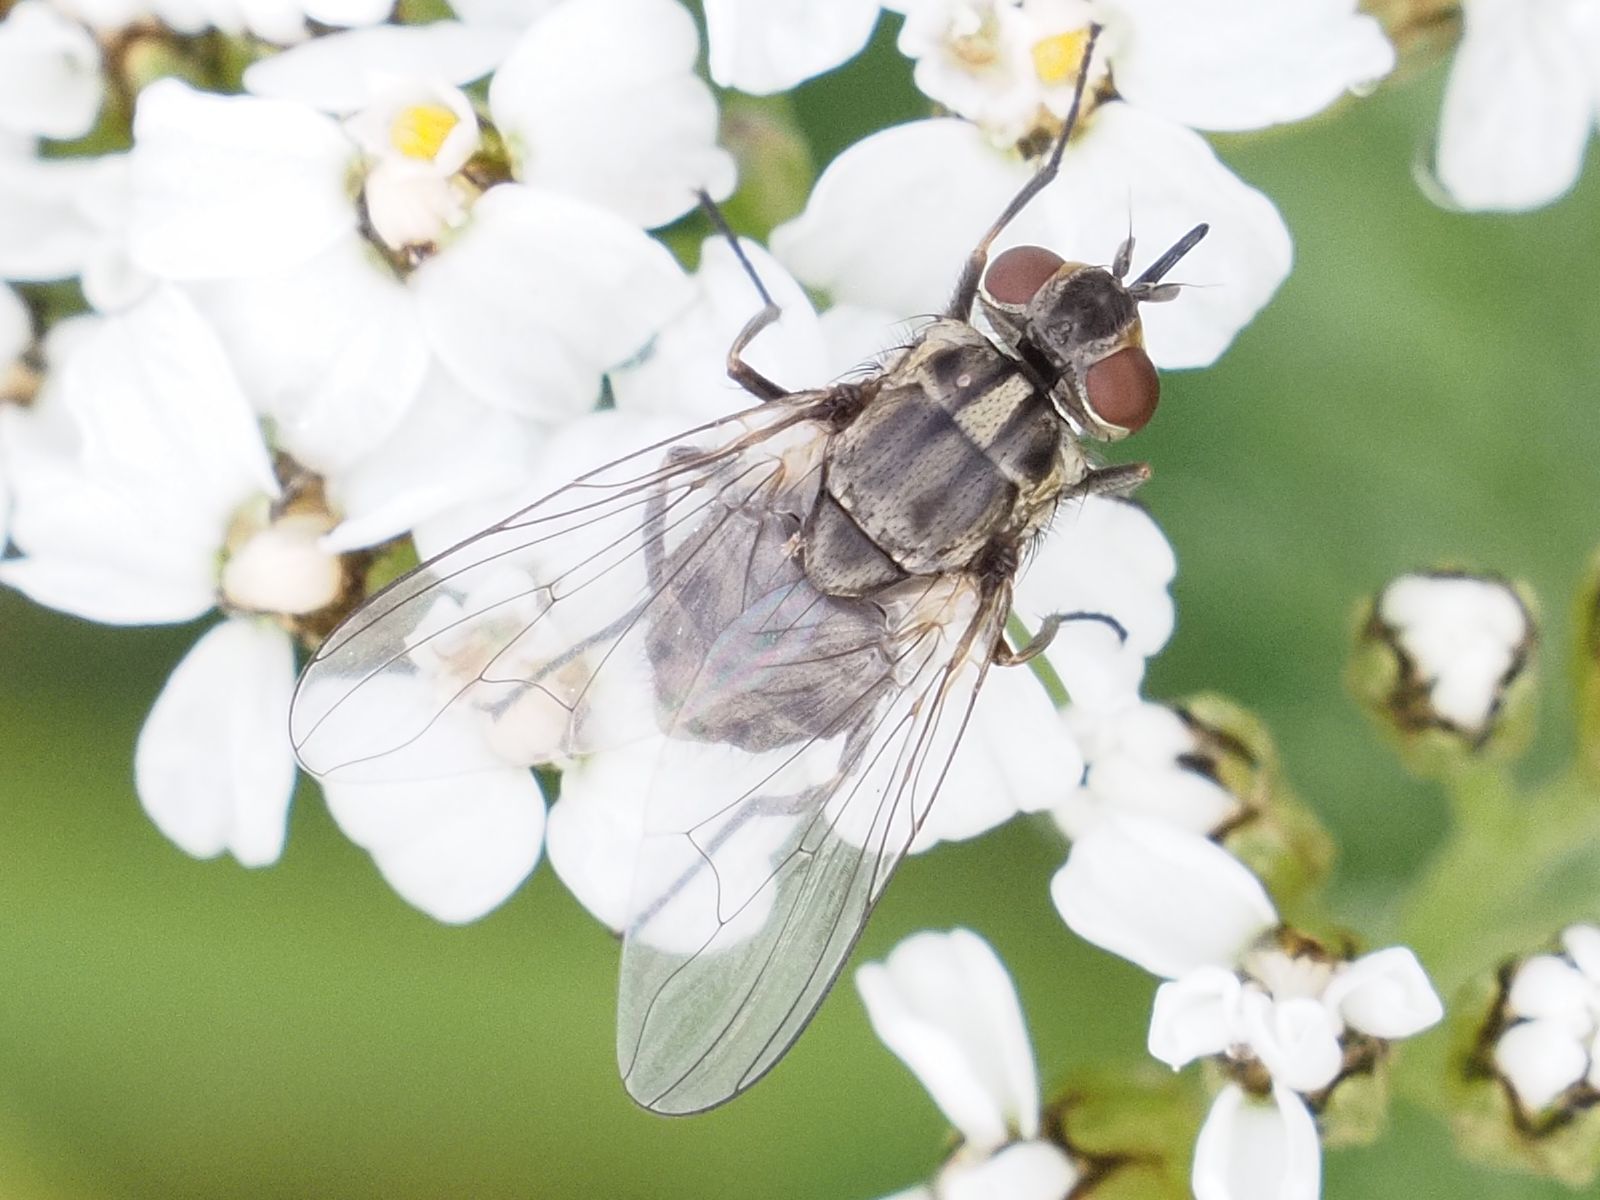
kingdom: Animalia
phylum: Arthropoda
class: Insecta
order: Diptera
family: Muscidae
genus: Stomoxys
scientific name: Stomoxys calcitrans
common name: Stable fly
